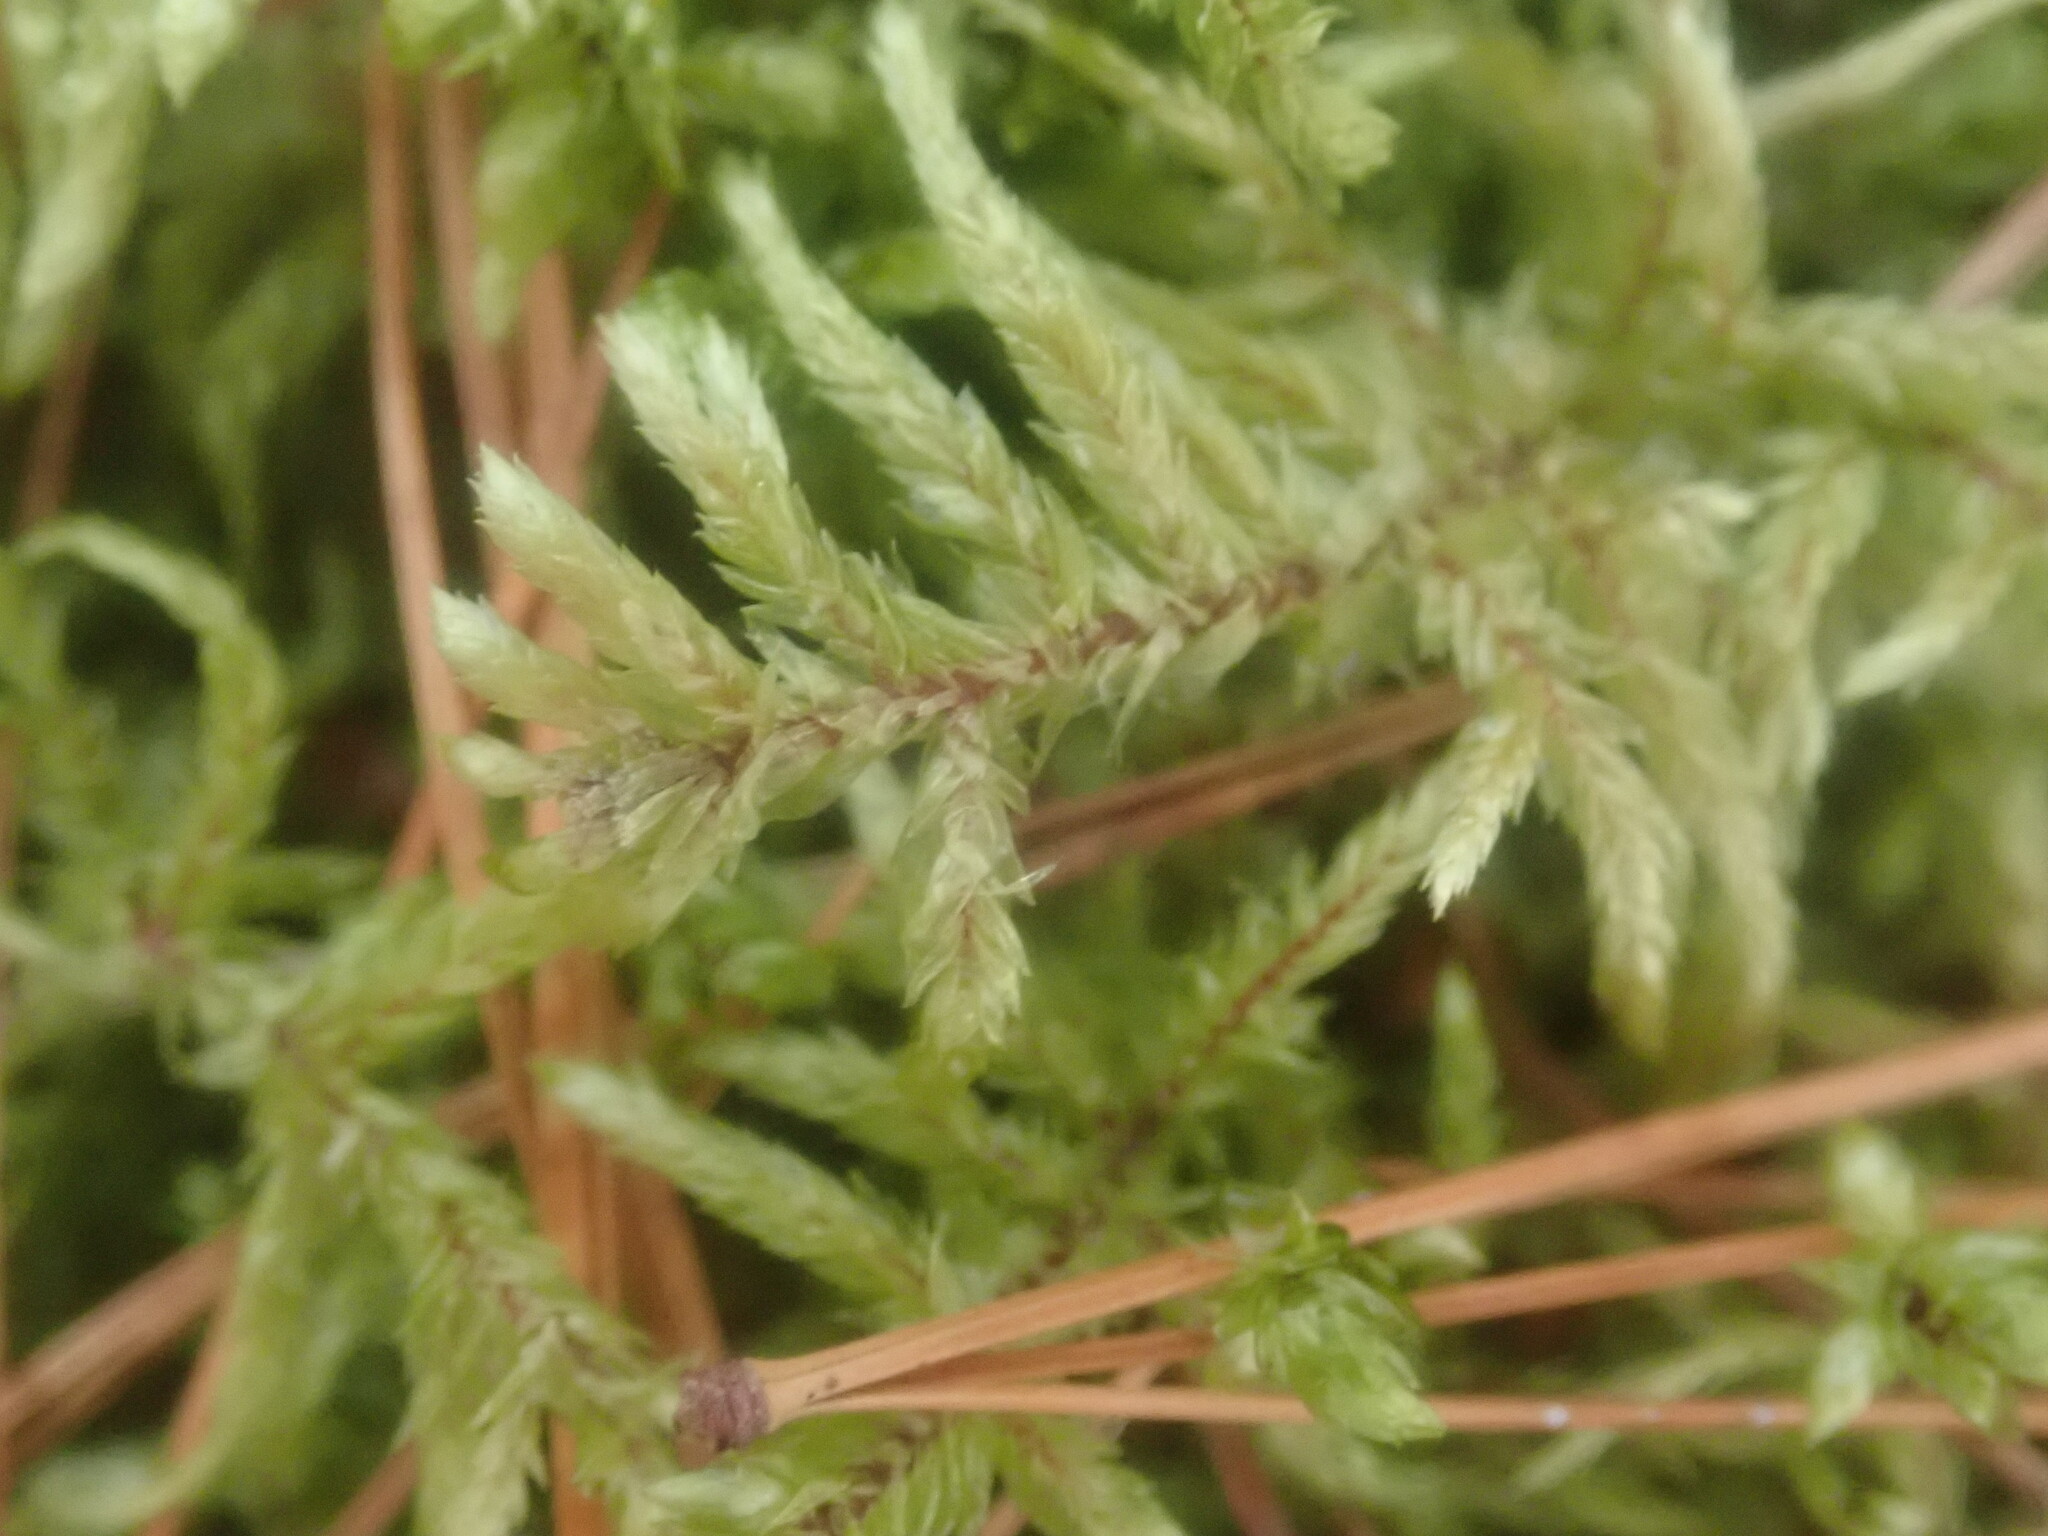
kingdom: Plantae
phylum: Bryophyta
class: Bryopsida
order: Hypnales
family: Hylocomiaceae
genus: Pleurozium
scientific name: Pleurozium schreberi
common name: Red-stemmed feather moss
